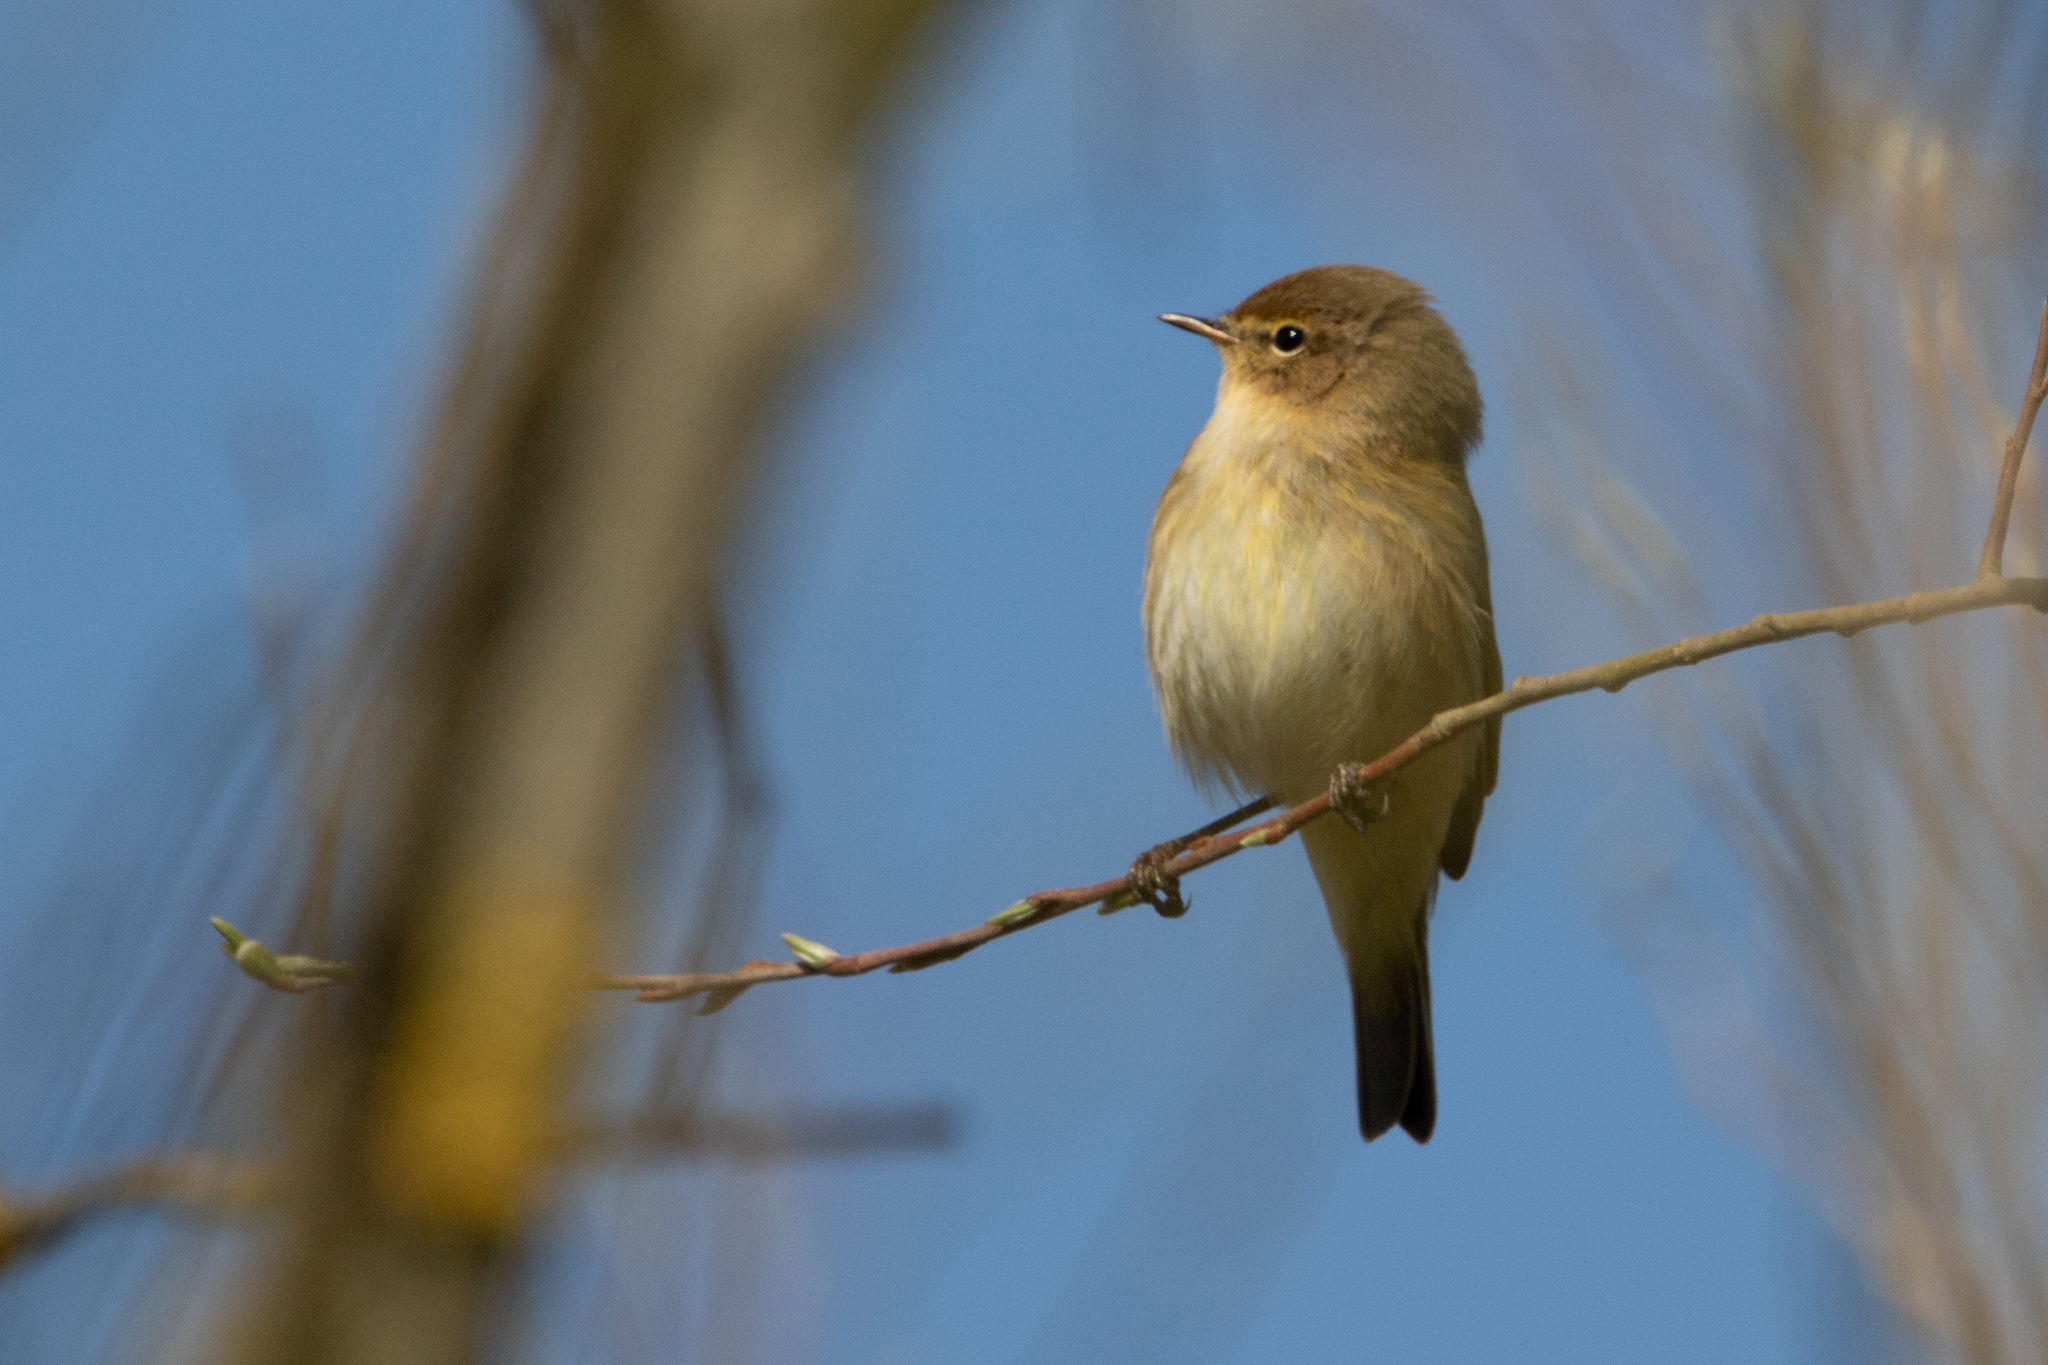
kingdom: Animalia
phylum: Chordata
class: Aves
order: Passeriformes
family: Phylloscopidae
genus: Phylloscopus
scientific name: Phylloscopus collybita
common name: Common chiffchaff
